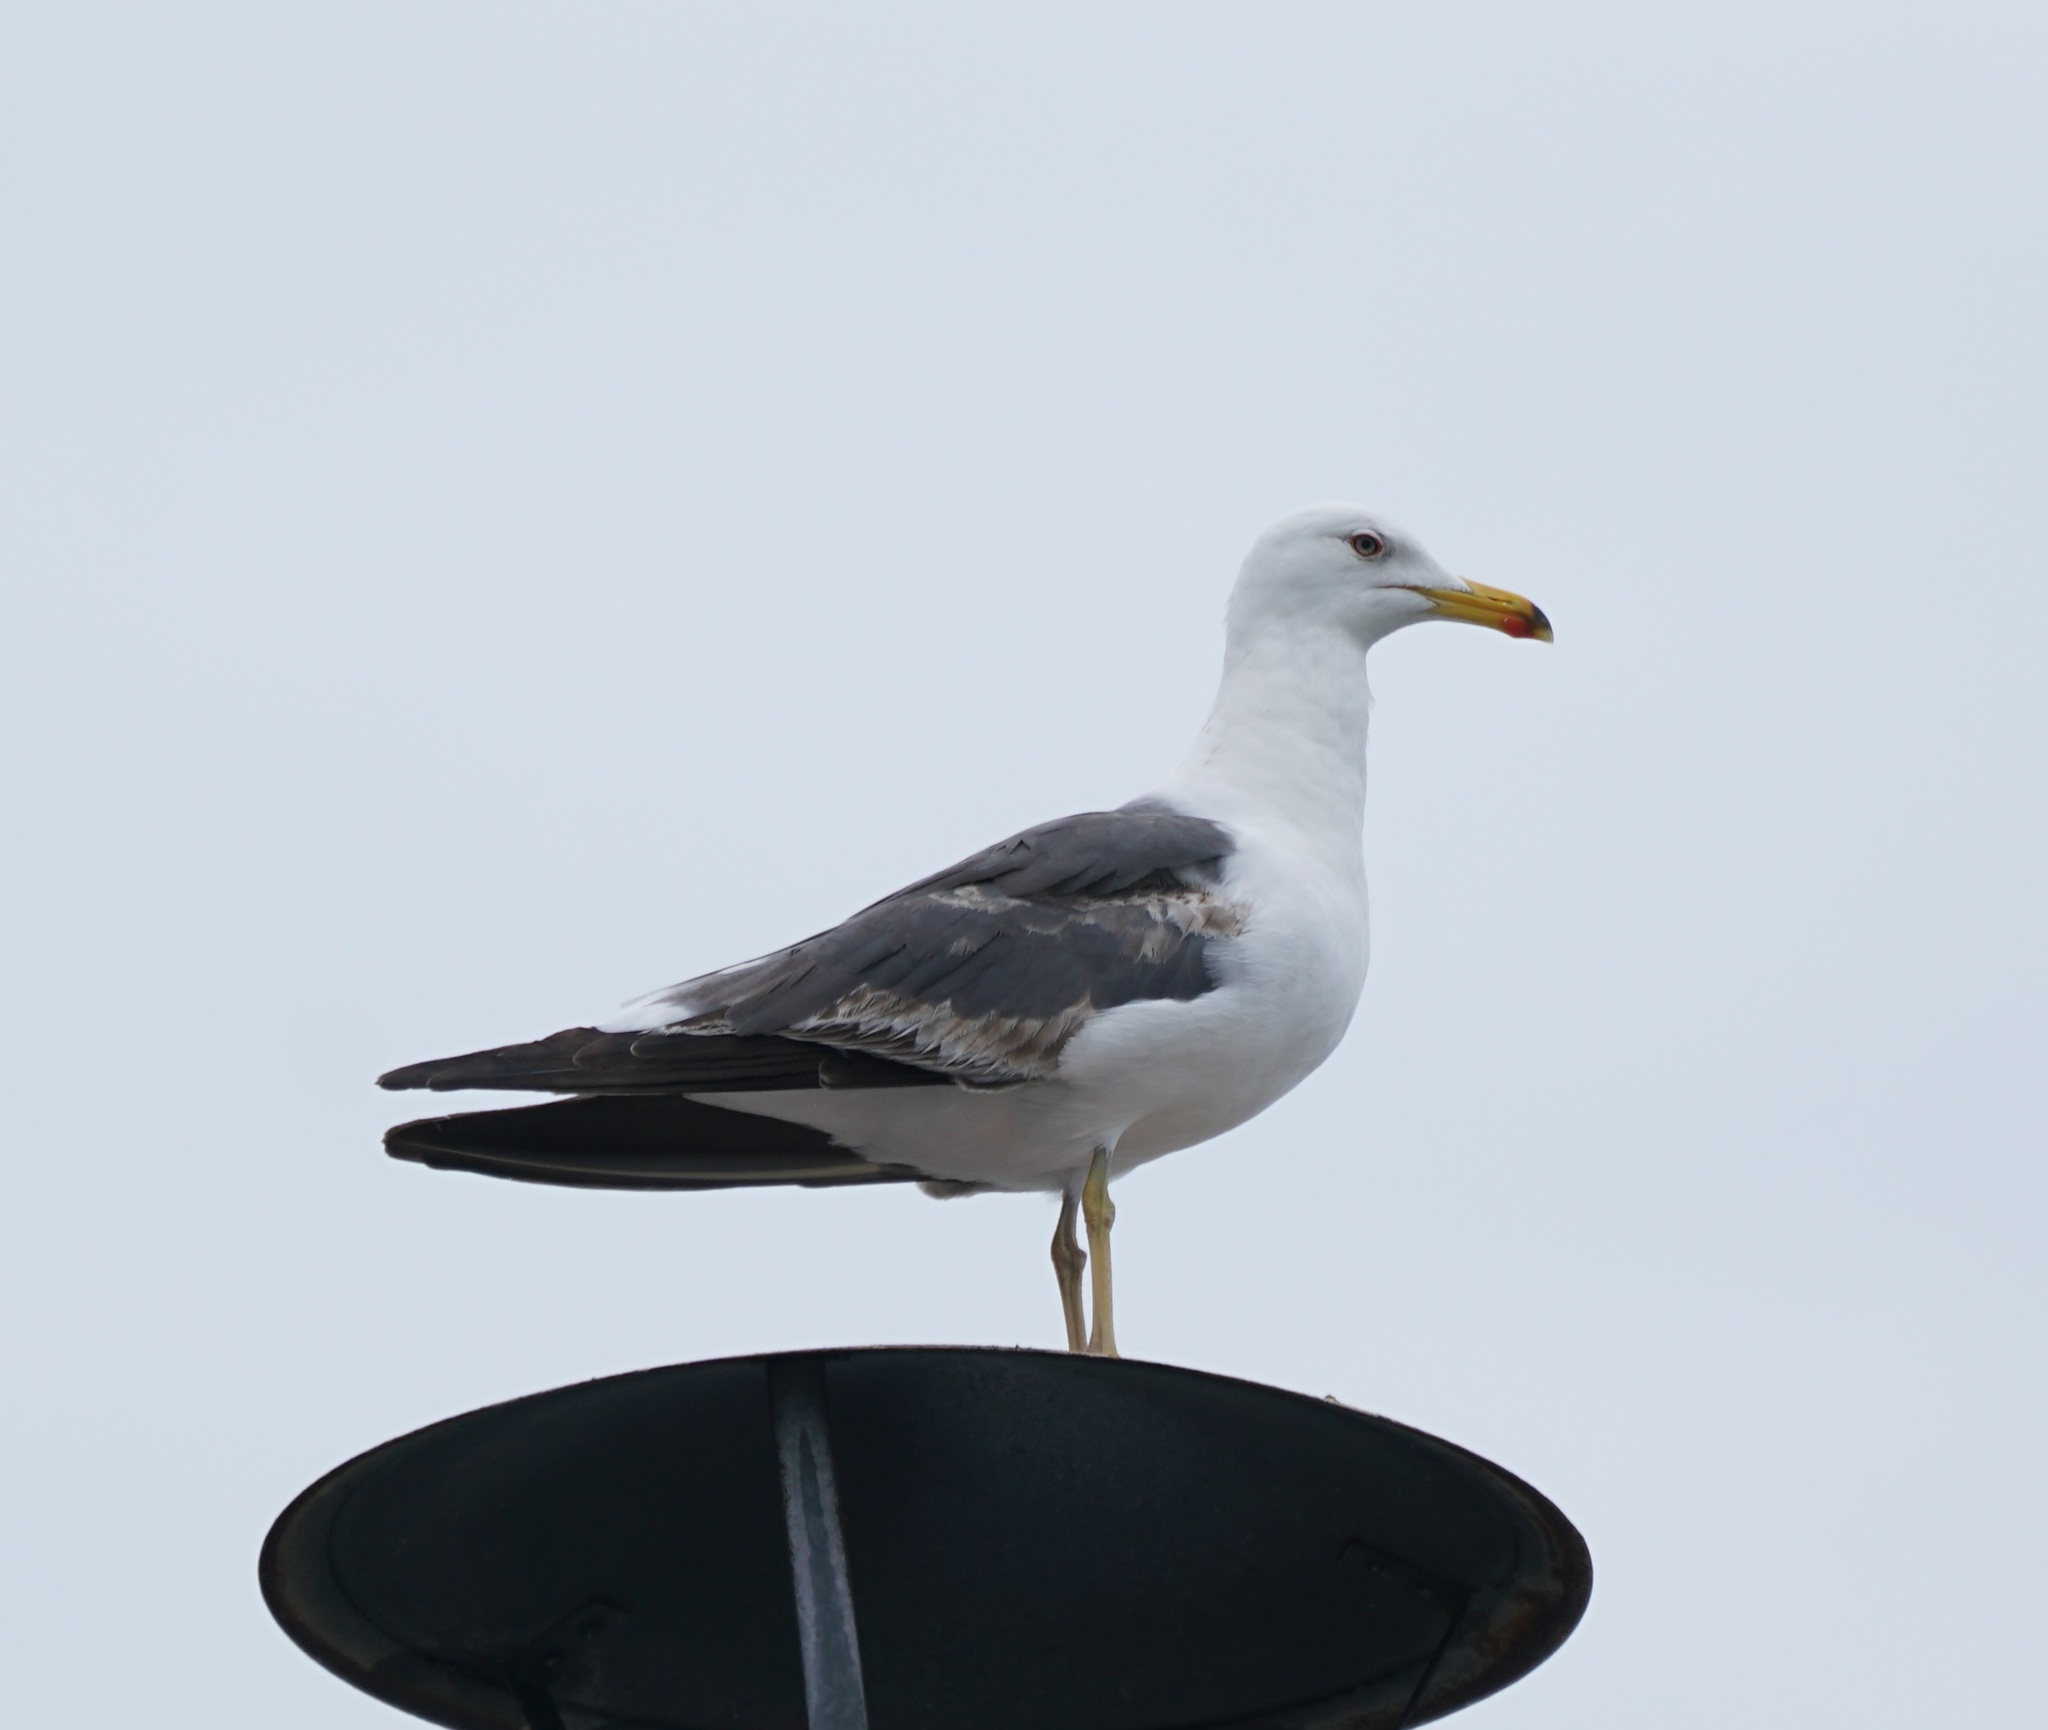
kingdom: Animalia
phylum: Chordata
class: Aves
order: Charadriiformes
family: Laridae
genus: Larus
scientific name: Larus fuscus
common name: Lesser black-backed gull
